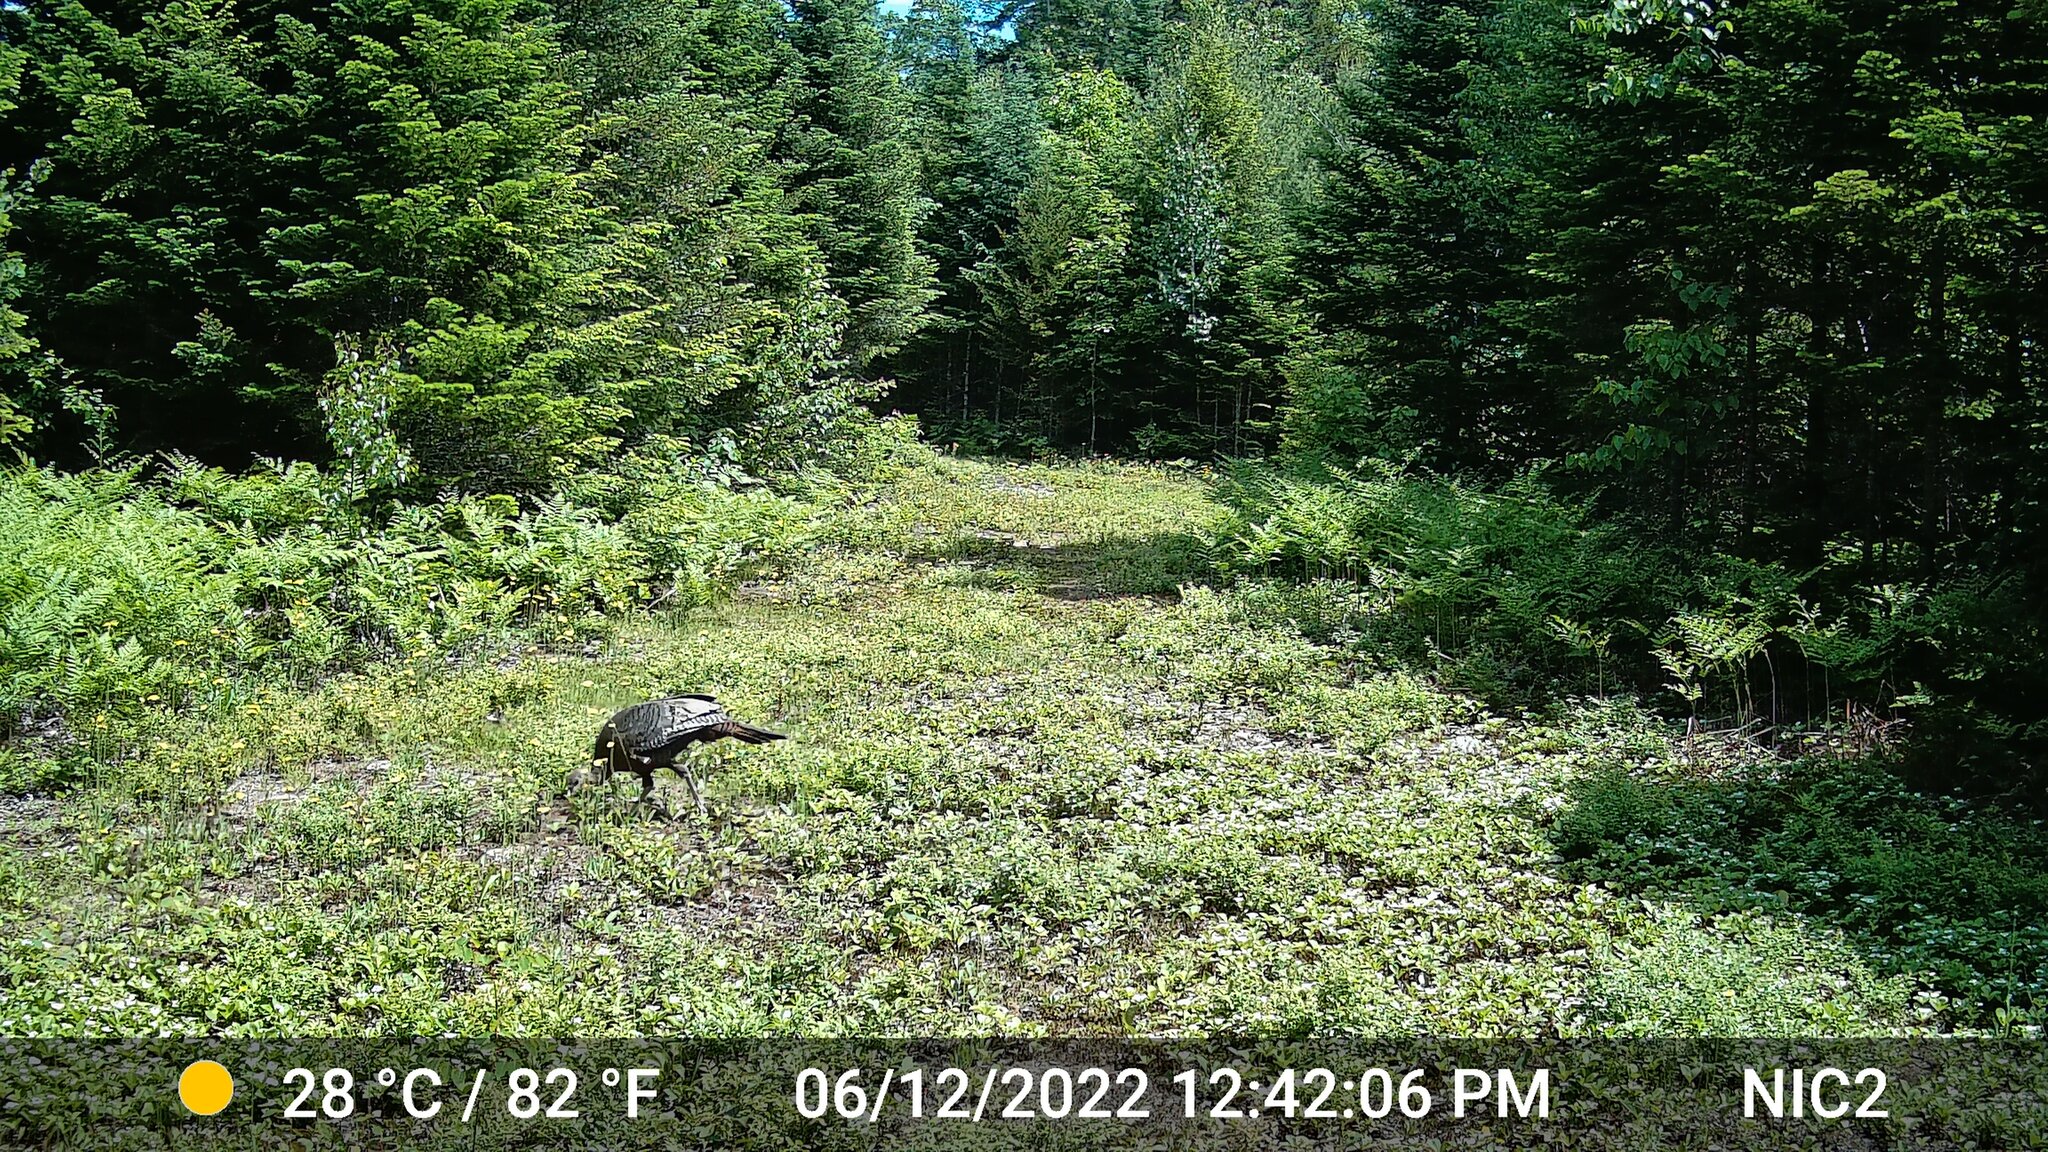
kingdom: Animalia
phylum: Chordata
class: Aves
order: Galliformes
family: Phasianidae
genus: Meleagris
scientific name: Meleagris gallopavo
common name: Wild turkey
